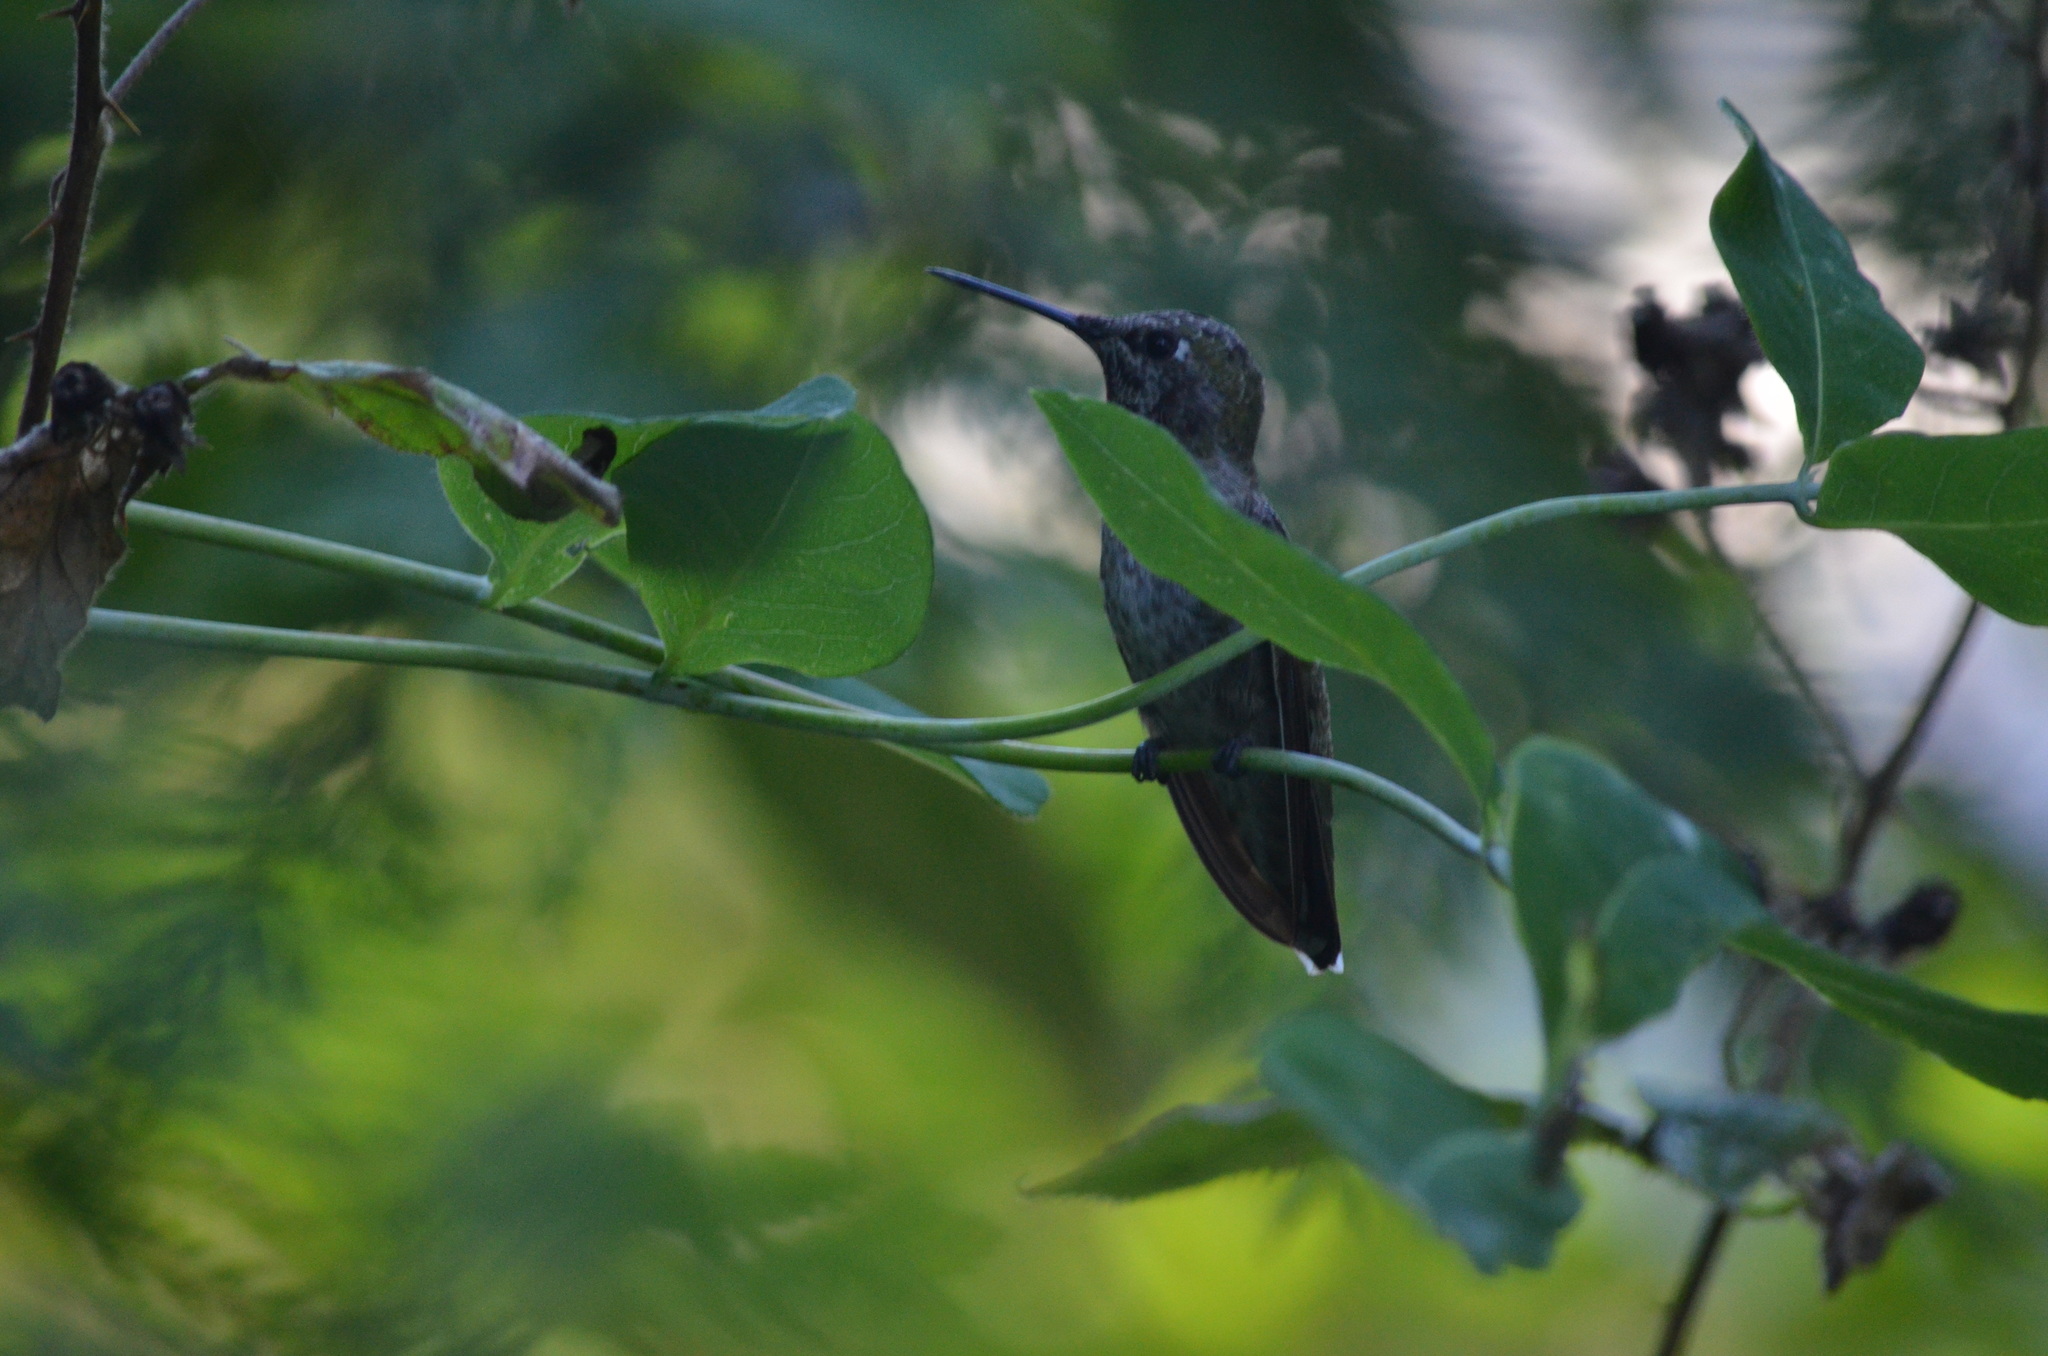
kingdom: Animalia
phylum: Chordata
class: Aves
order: Apodiformes
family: Trochilidae
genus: Calypte
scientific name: Calypte anna
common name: Anna's hummingbird
